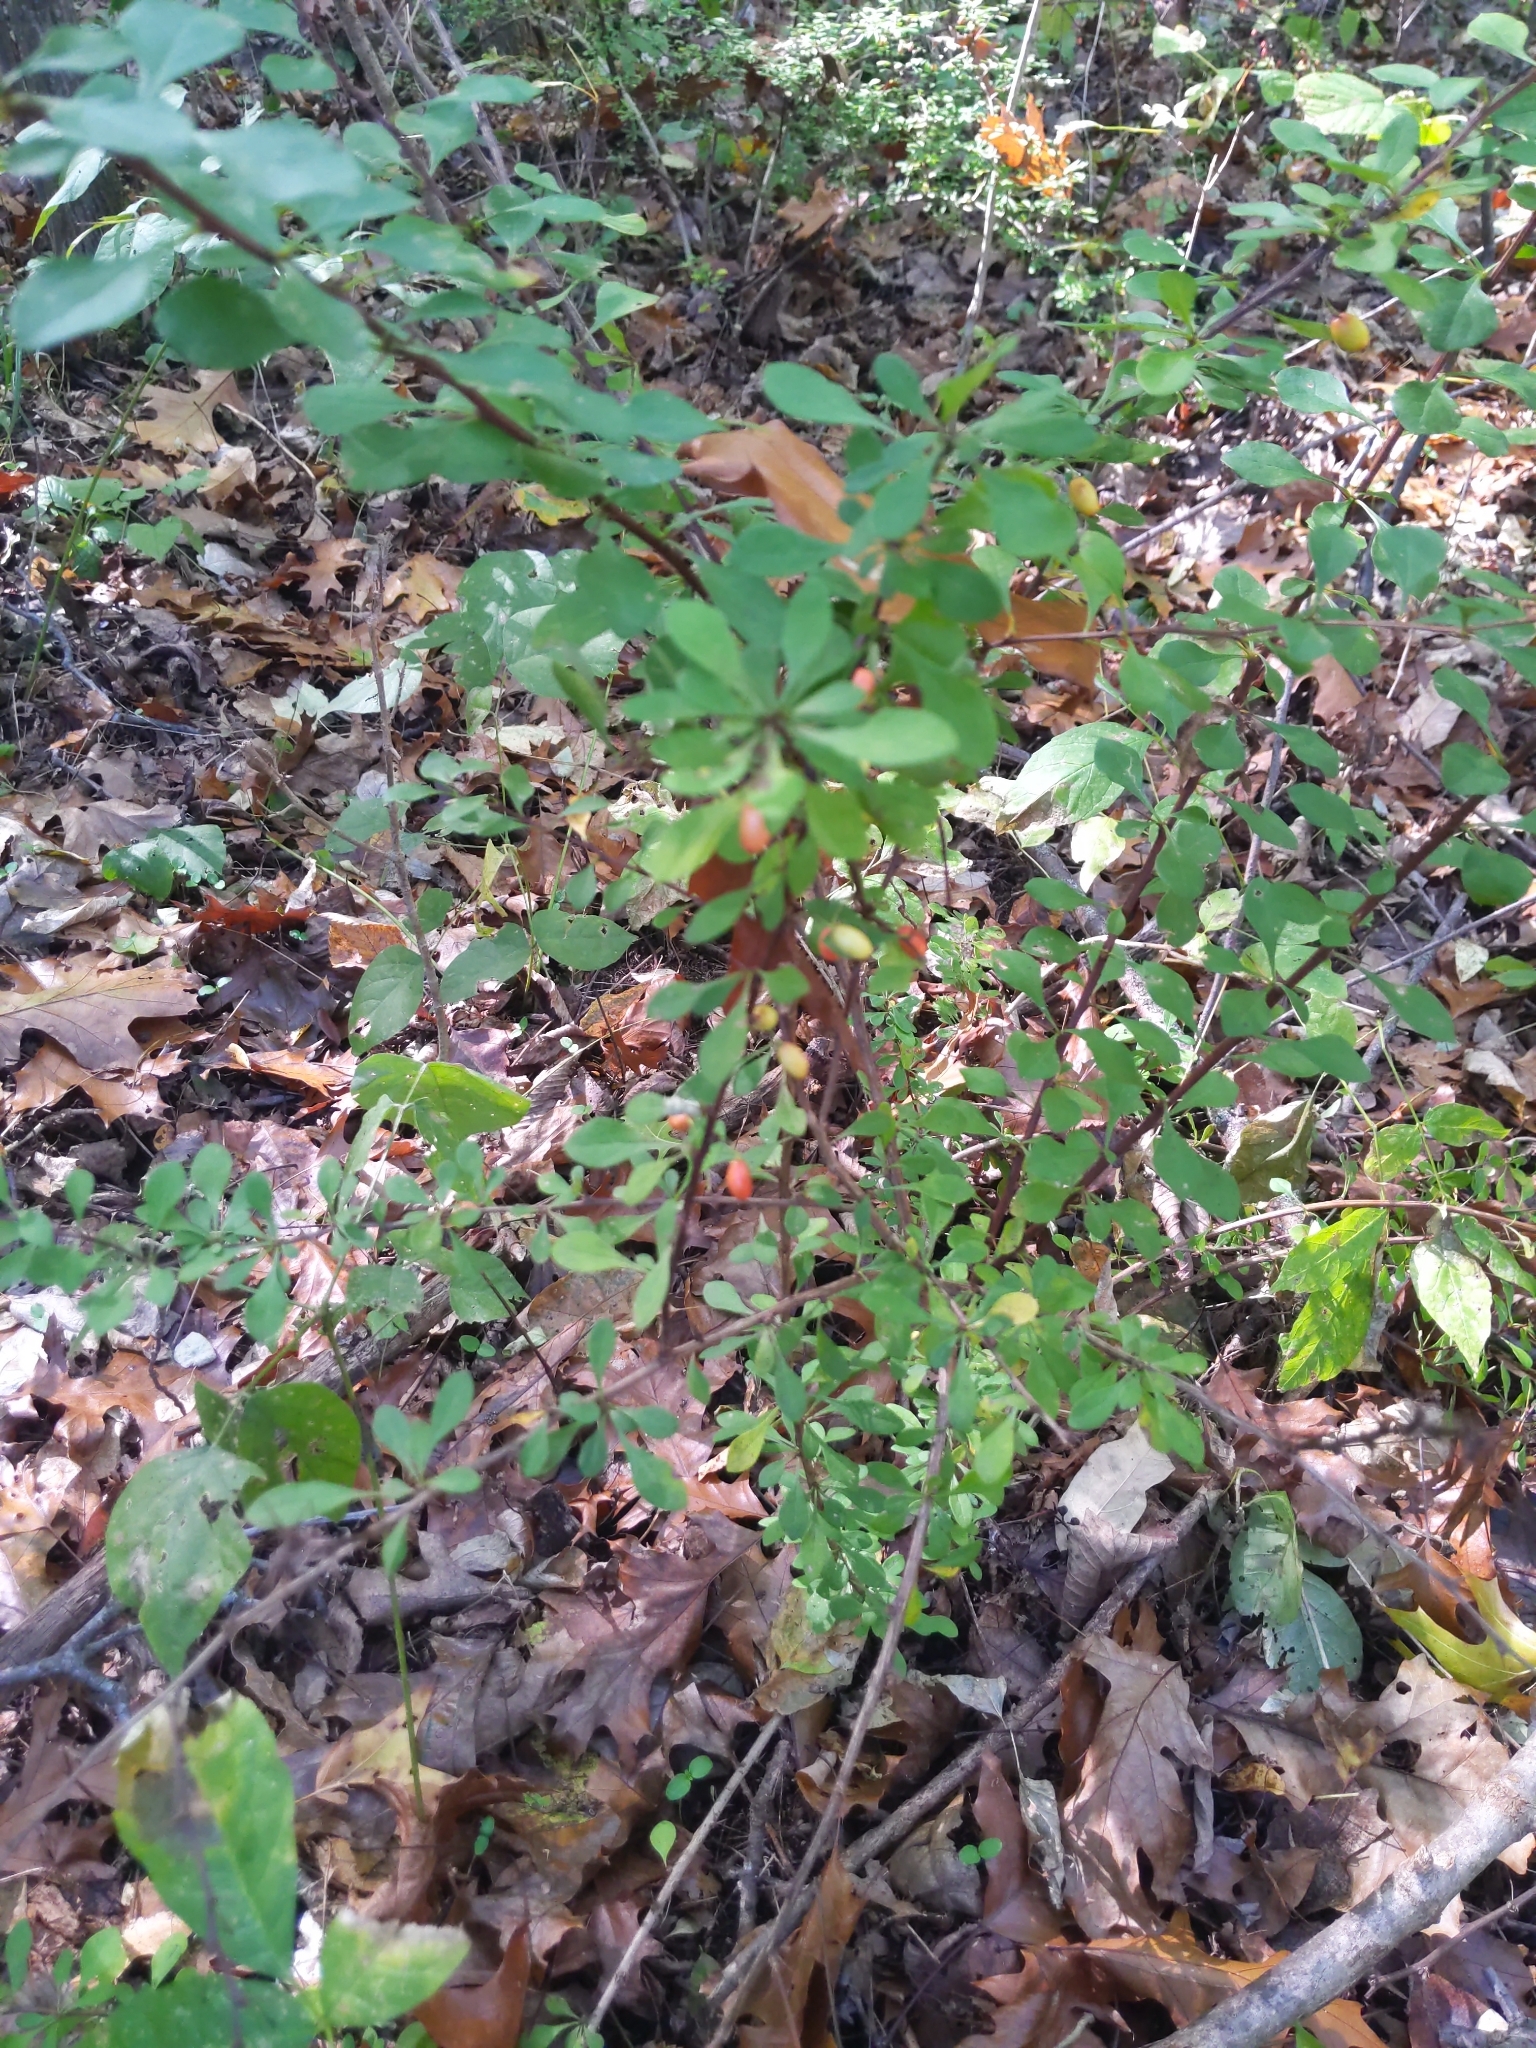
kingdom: Plantae
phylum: Tracheophyta
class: Magnoliopsida
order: Ranunculales
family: Berberidaceae
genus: Berberis
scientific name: Berberis thunbergii
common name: Japanese barberry
